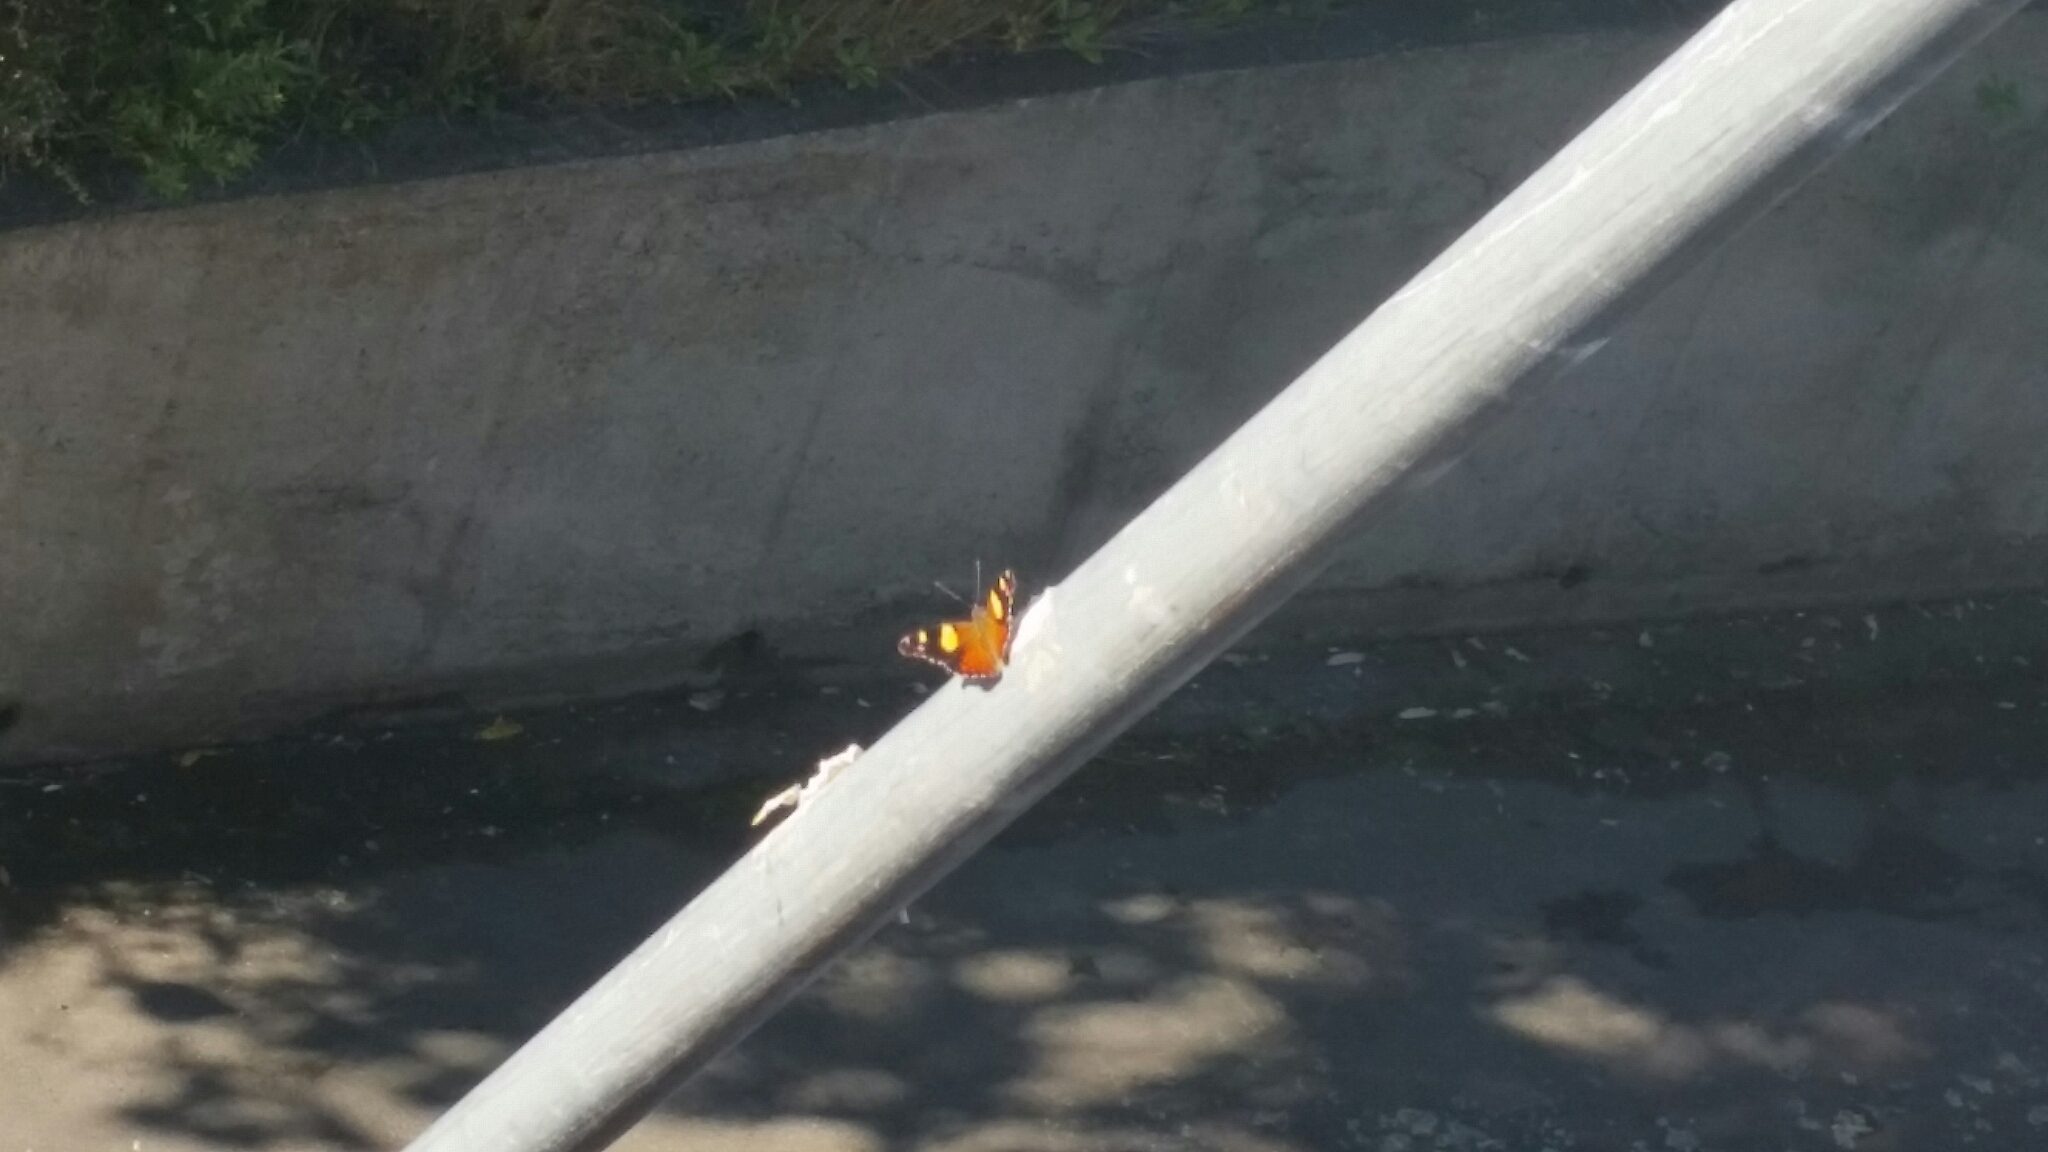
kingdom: Animalia
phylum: Arthropoda
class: Insecta
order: Lepidoptera
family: Nymphalidae
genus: Vanessa
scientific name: Vanessa itea
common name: Yellow admiral
